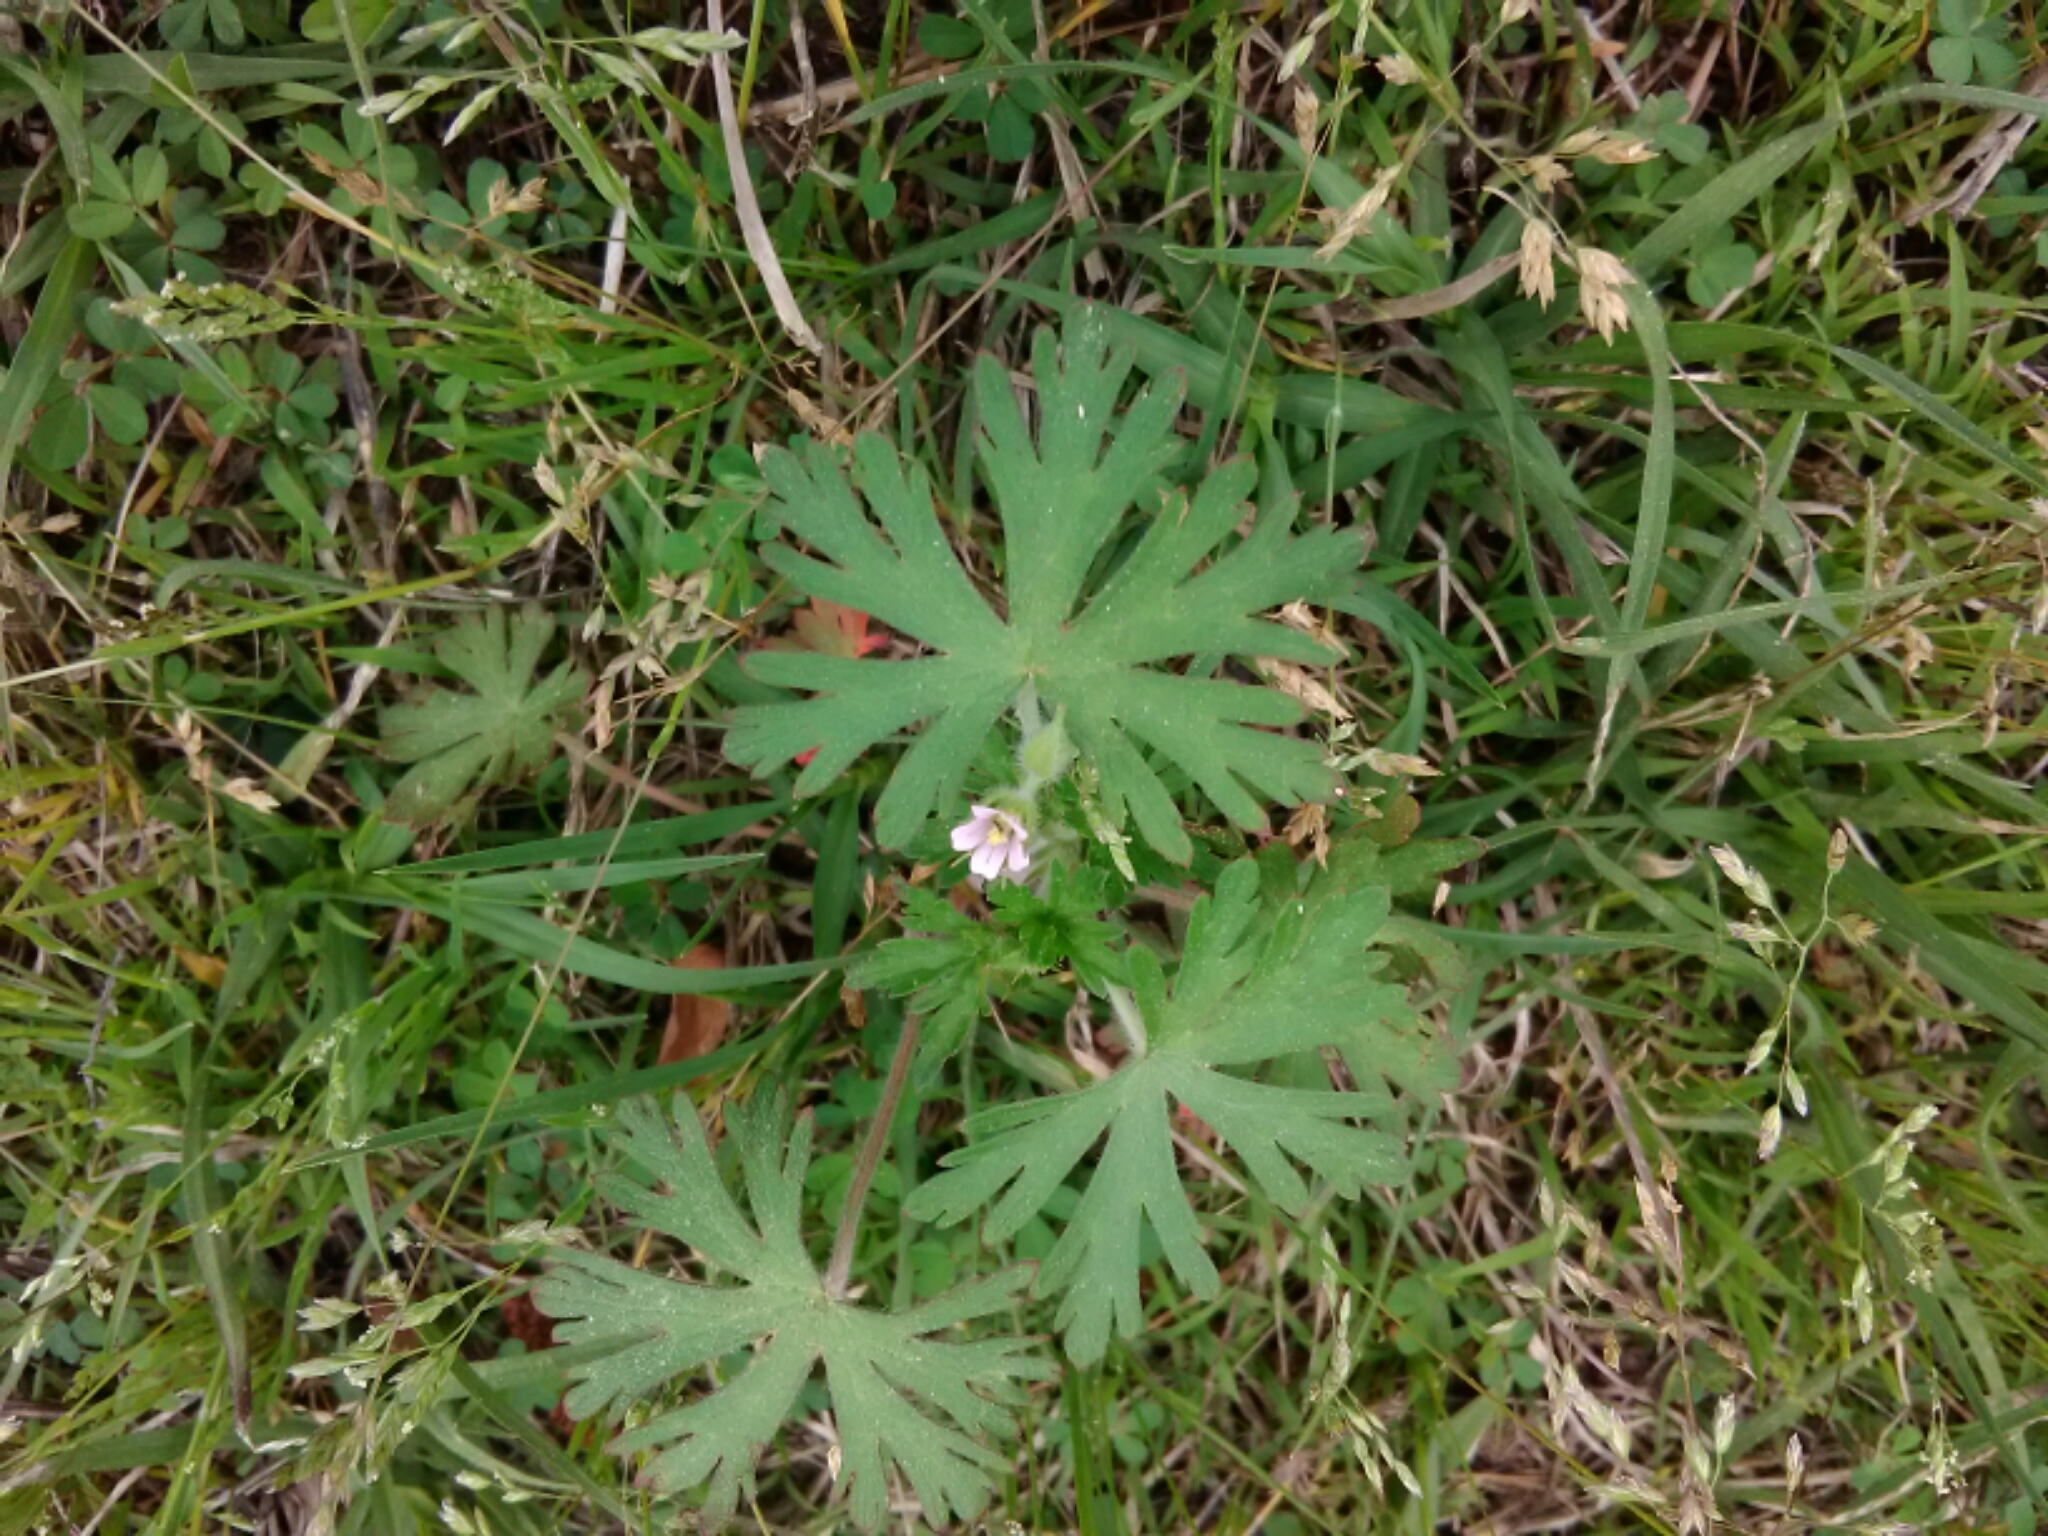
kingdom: Plantae
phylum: Tracheophyta
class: Magnoliopsida
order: Geraniales
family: Geraniaceae
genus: Geranium
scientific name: Geranium carolinianum
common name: Carolina crane's-bill
